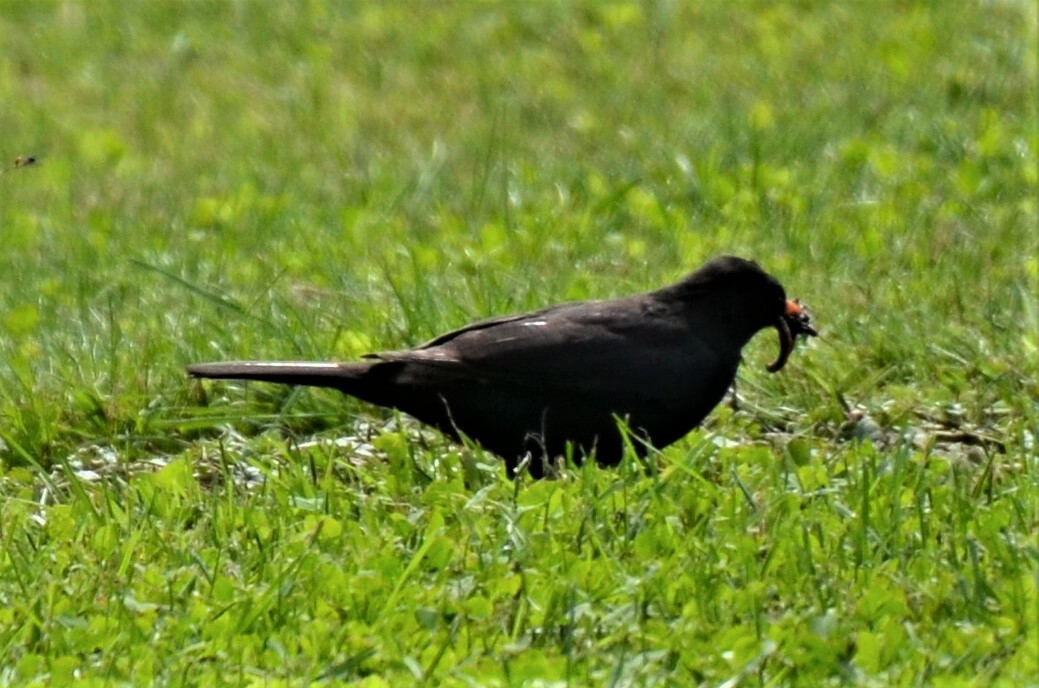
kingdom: Animalia
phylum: Chordata
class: Aves
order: Passeriformes
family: Turdidae
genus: Turdus
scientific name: Turdus merula
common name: Common blackbird
